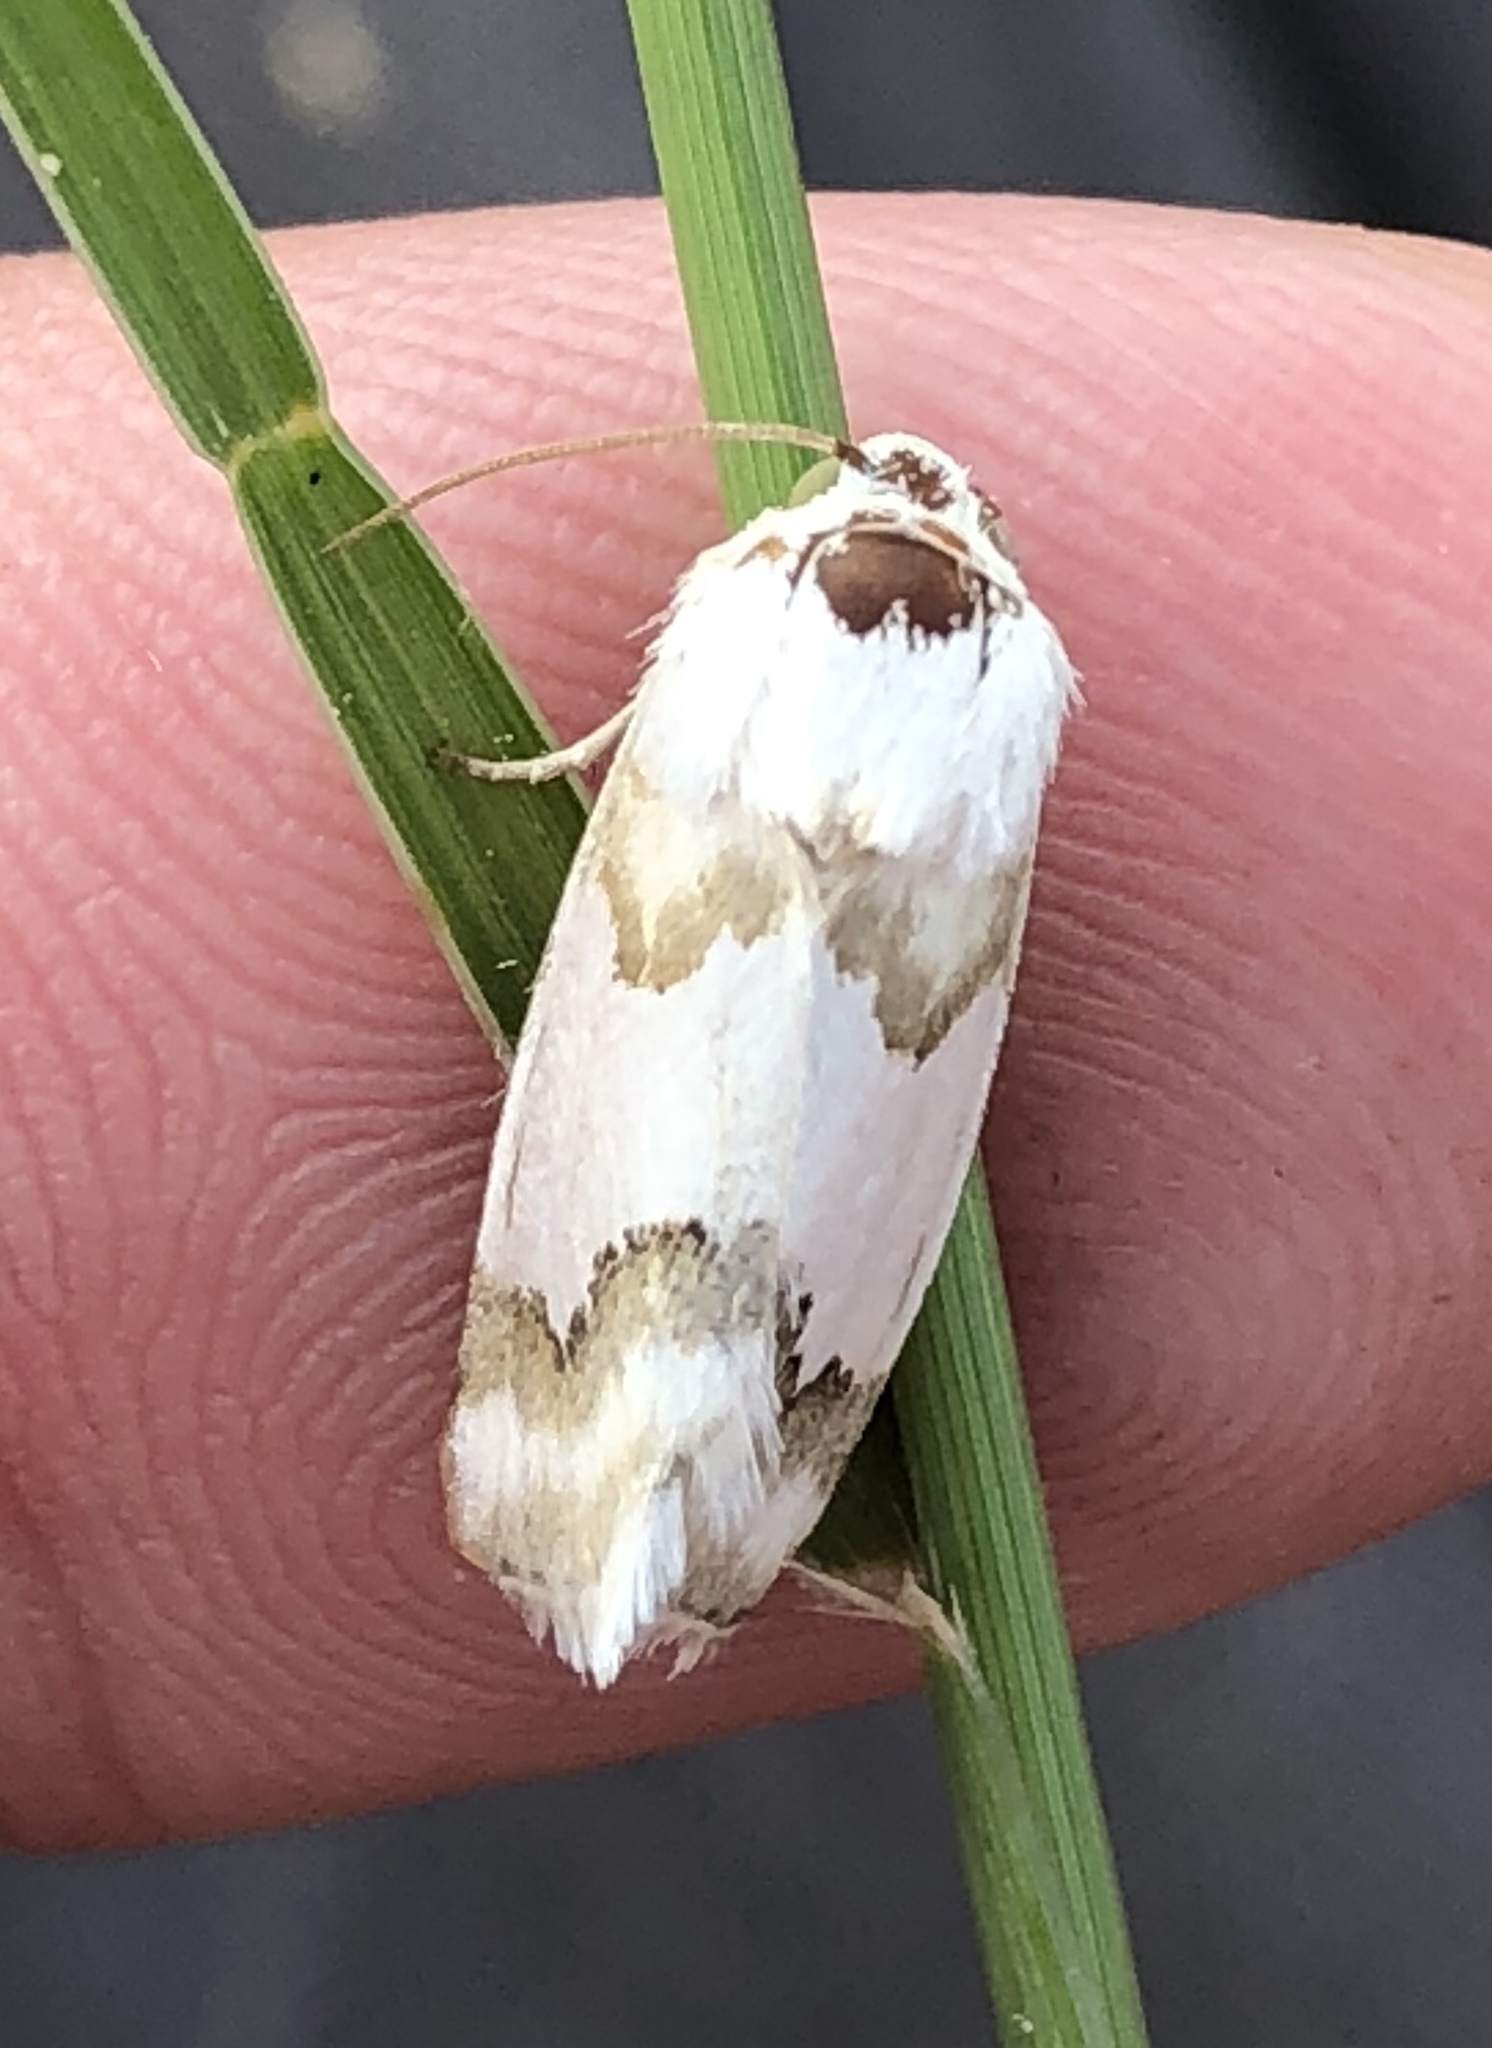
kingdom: Animalia
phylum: Arthropoda
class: Insecta
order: Lepidoptera
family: Noctuidae
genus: Schinia
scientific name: Schinia hulstia
